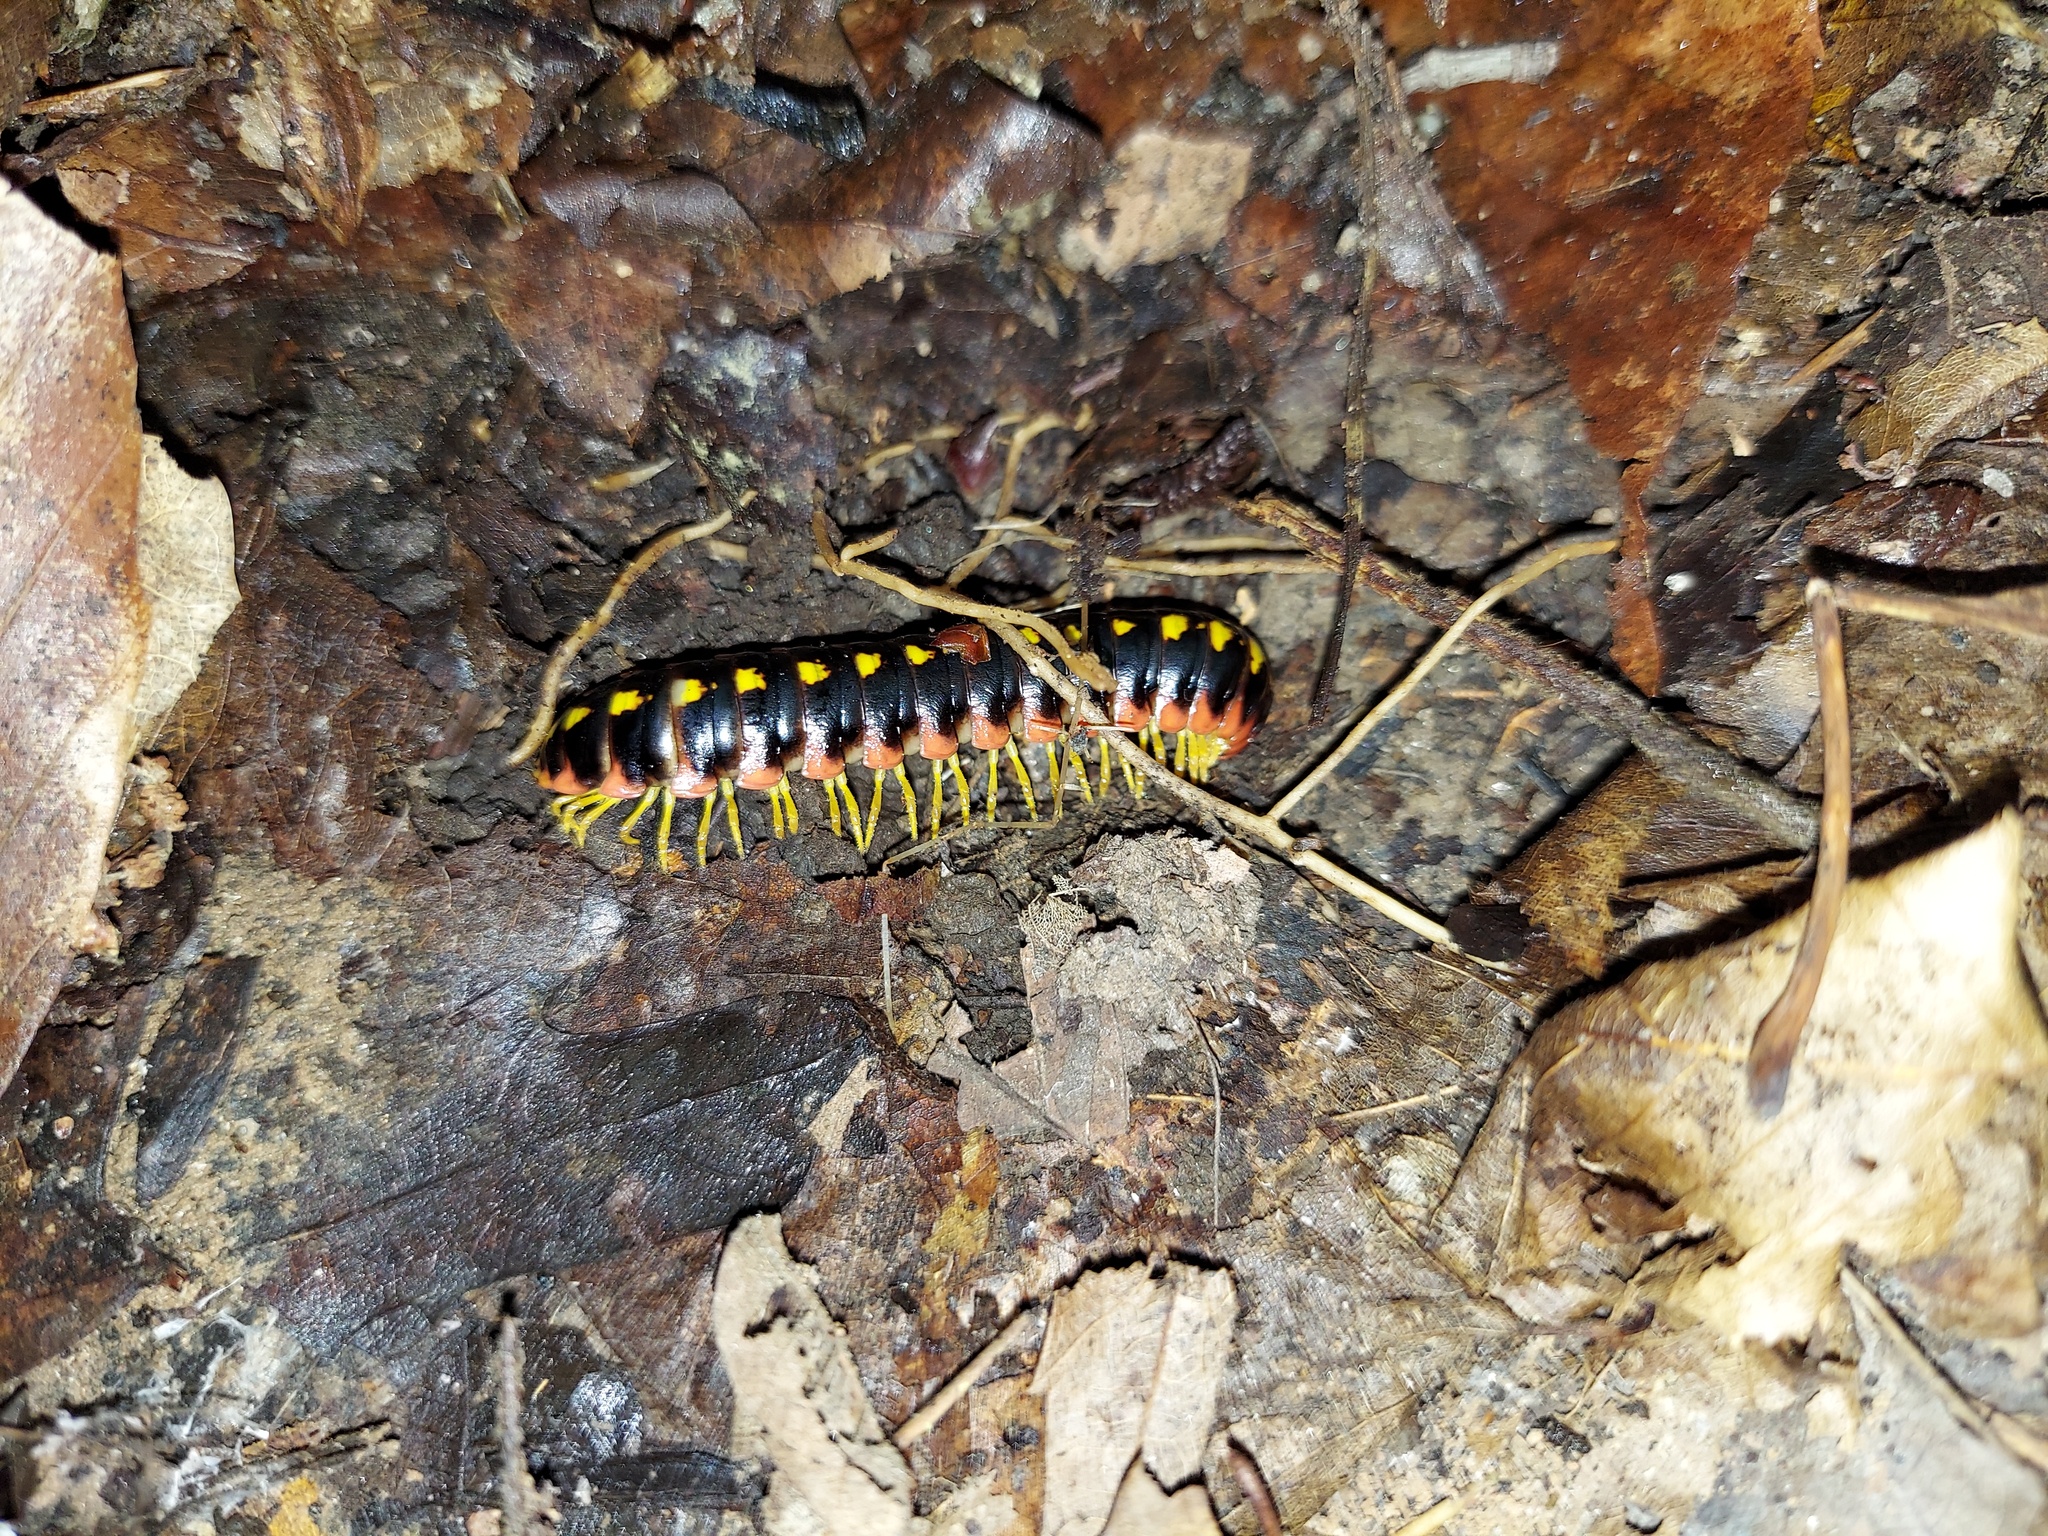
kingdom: Animalia
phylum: Arthropoda
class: Diplopoda
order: Polydesmida
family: Xystodesmidae
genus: Apheloria
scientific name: Apheloria virginiensis
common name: Black-and-gold flat millipede
